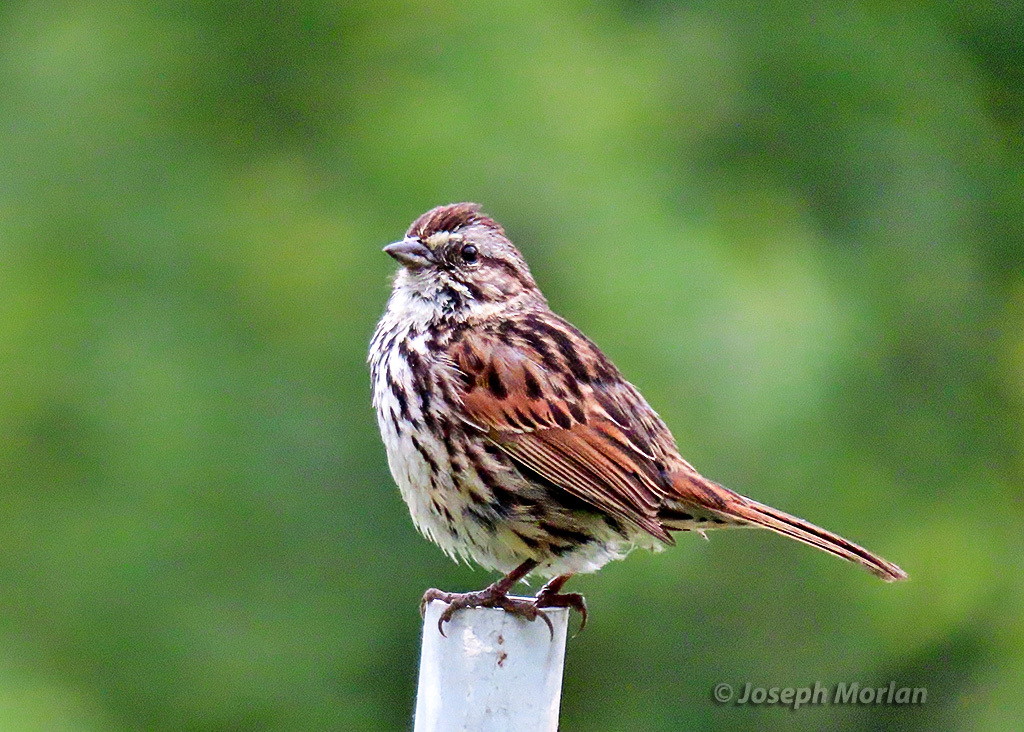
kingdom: Animalia
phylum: Chordata
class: Aves
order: Passeriformes
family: Passerellidae
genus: Melospiza
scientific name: Melospiza melodia
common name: Song sparrow
